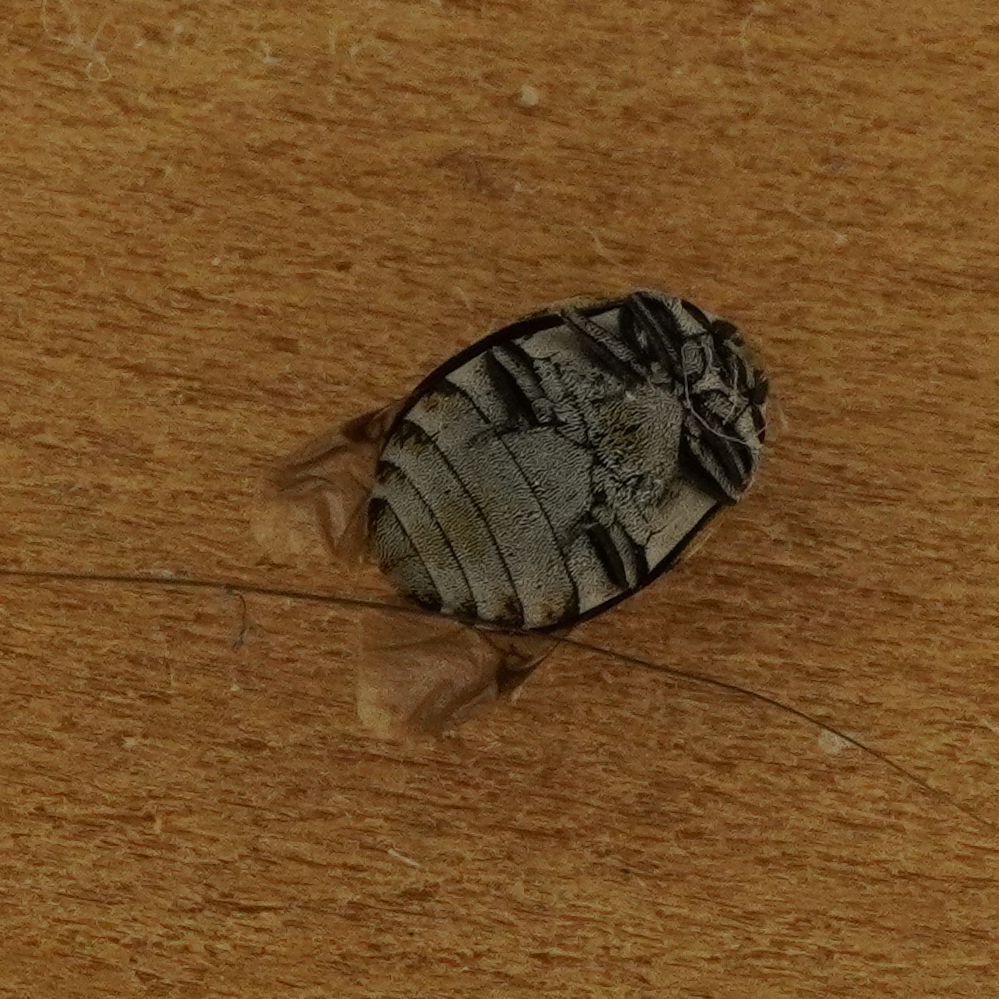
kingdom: Animalia
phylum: Arthropoda
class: Insecta
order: Coleoptera
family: Dermestidae
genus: Anthrenus
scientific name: Anthrenus verbasci
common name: Varied carpet beetle
